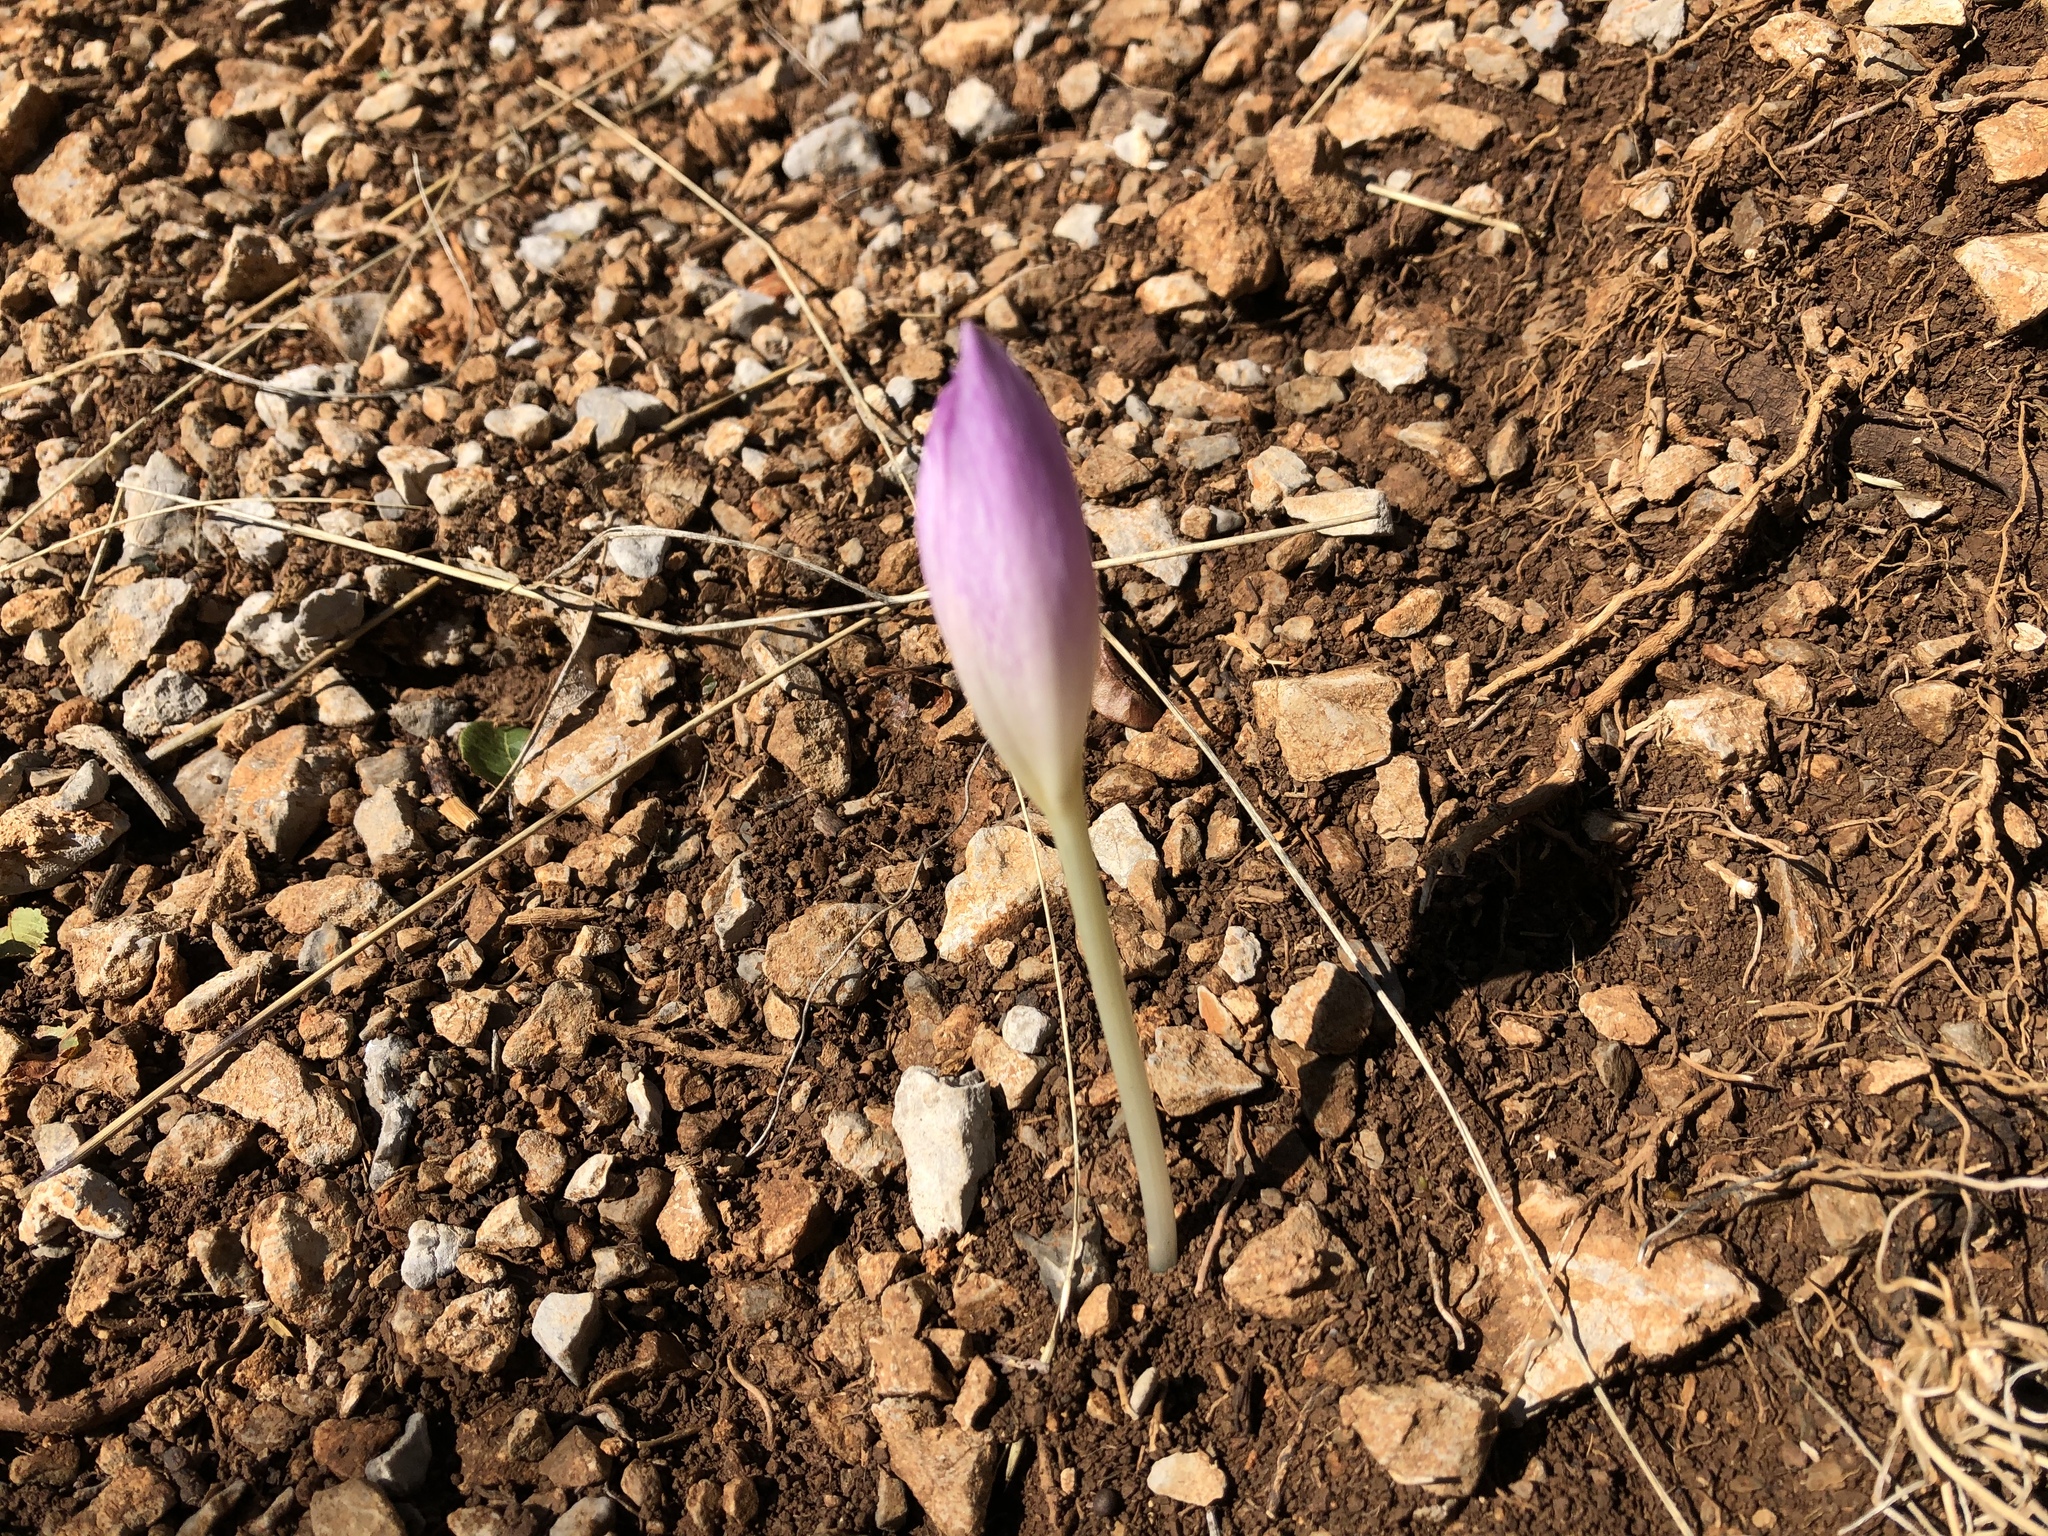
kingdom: Plantae
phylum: Tracheophyta
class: Liliopsida
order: Liliales
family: Colchicaceae
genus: Colchicum
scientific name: Colchicum haynaldii
